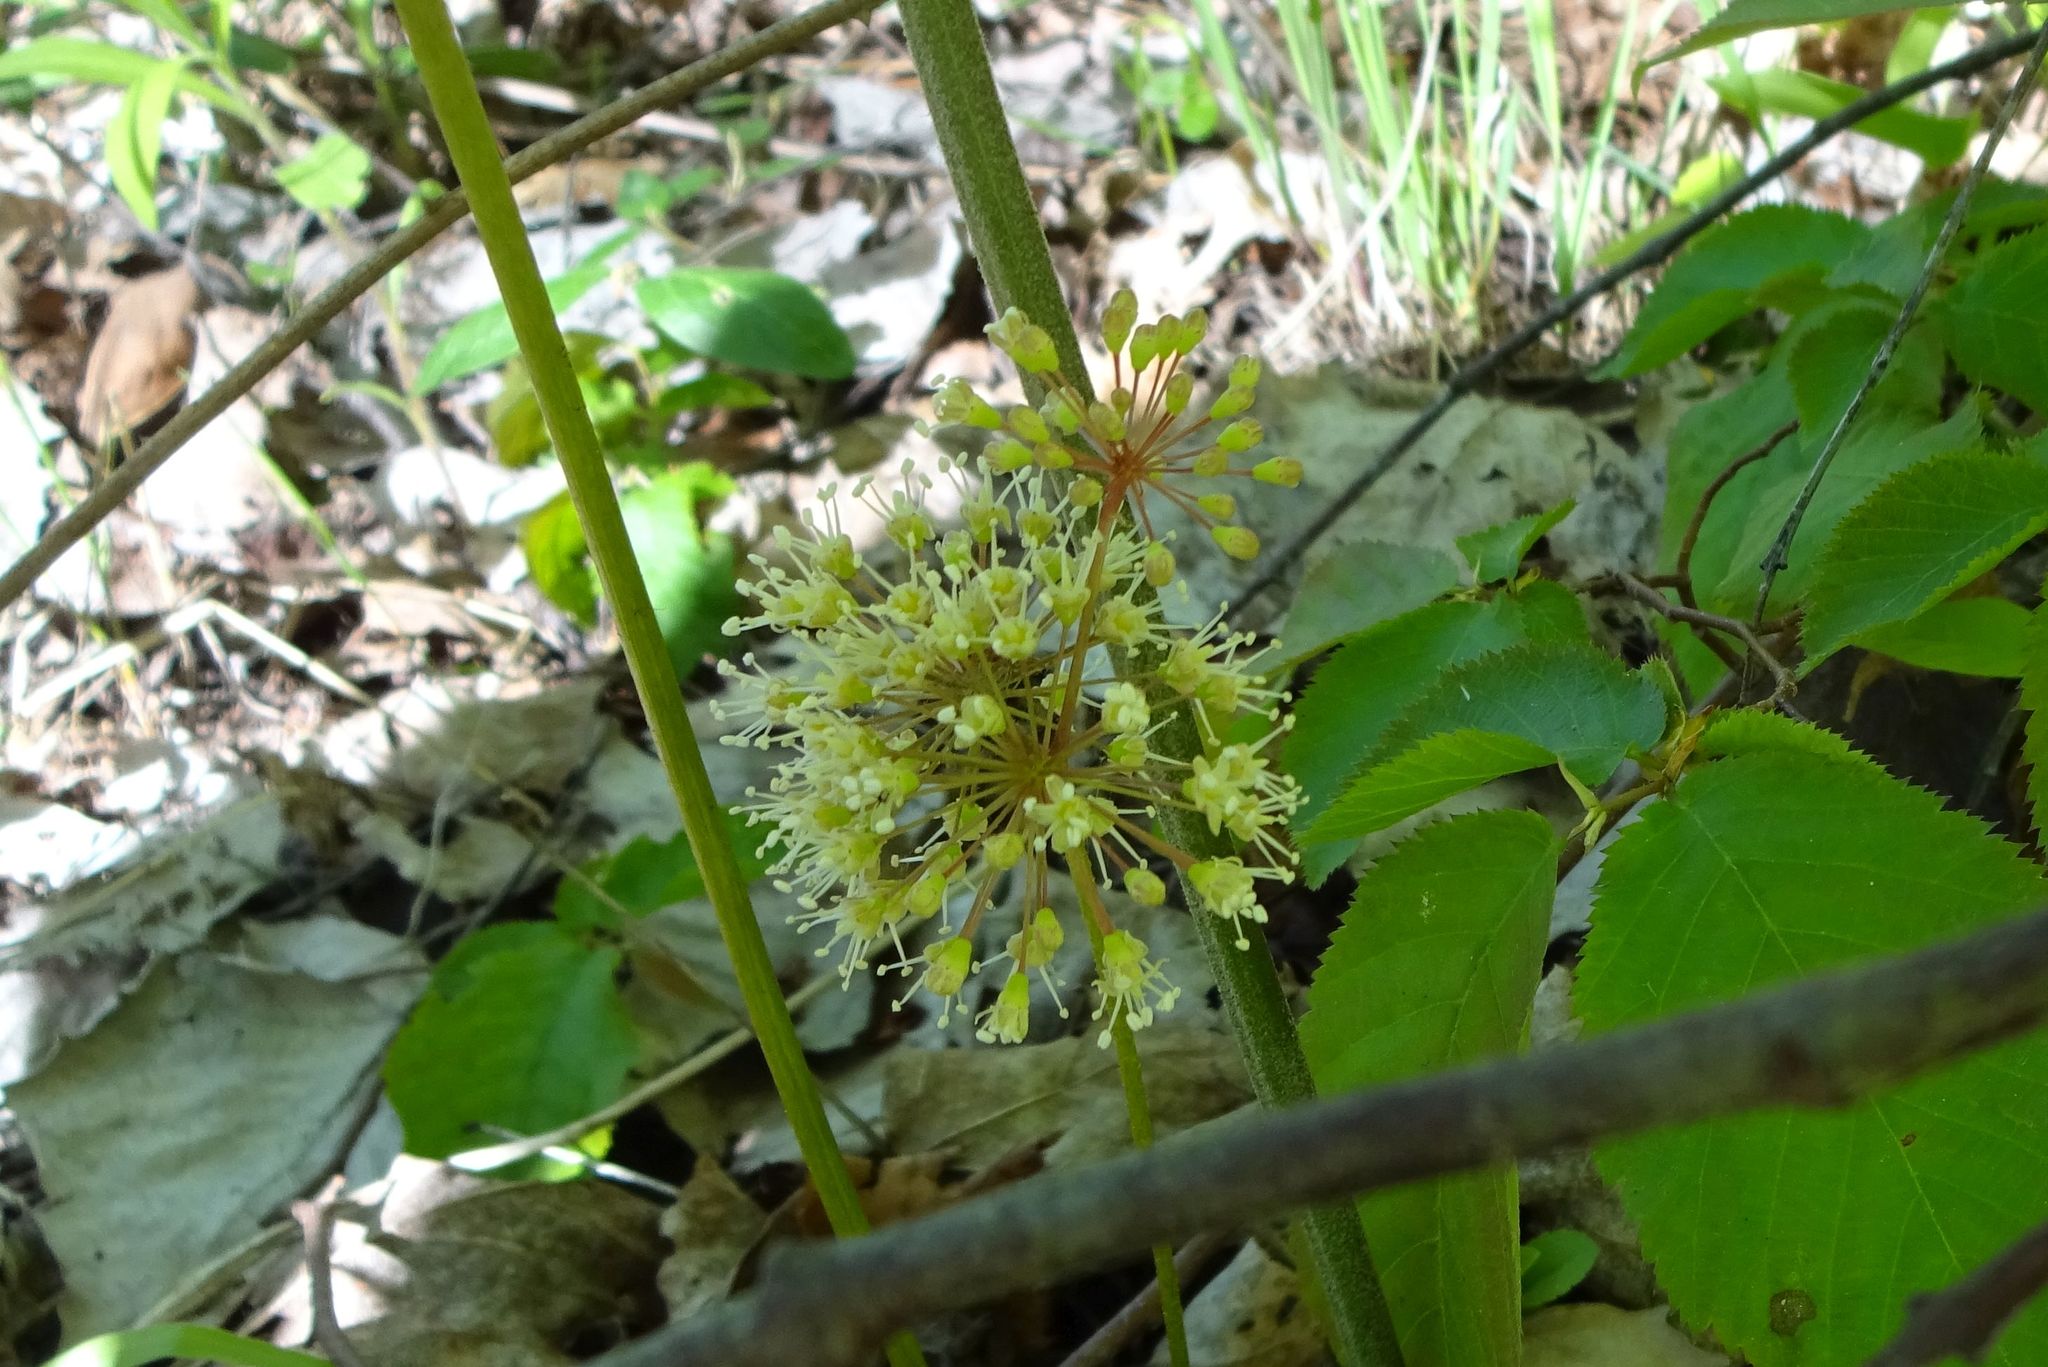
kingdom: Plantae
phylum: Tracheophyta
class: Magnoliopsida
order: Apiales
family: Araliaceae
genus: Aralia
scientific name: Aralia nudicaulis
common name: Wild sarsaparilla
